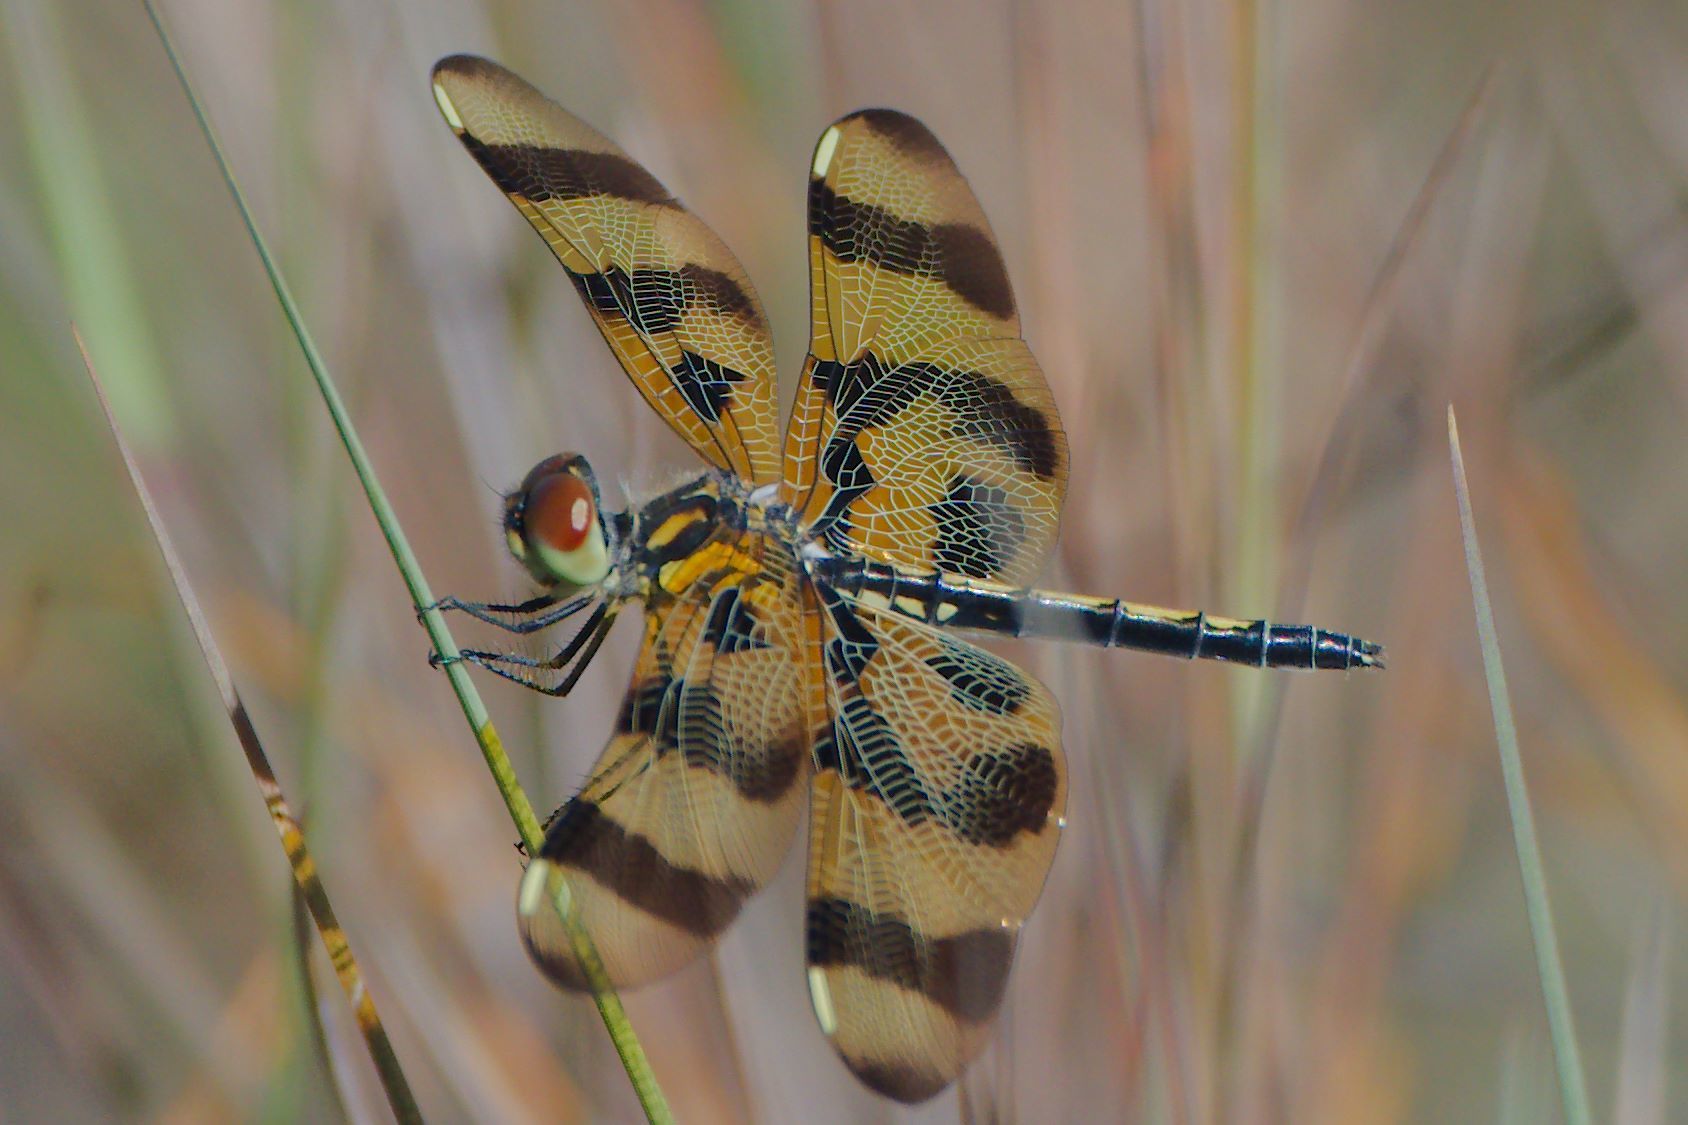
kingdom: Animalia
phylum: Arthropoda
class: Insecta
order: Odonata
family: Libellulidae
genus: Celithemis
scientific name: Celithemis eponina
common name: Halloween pennant
